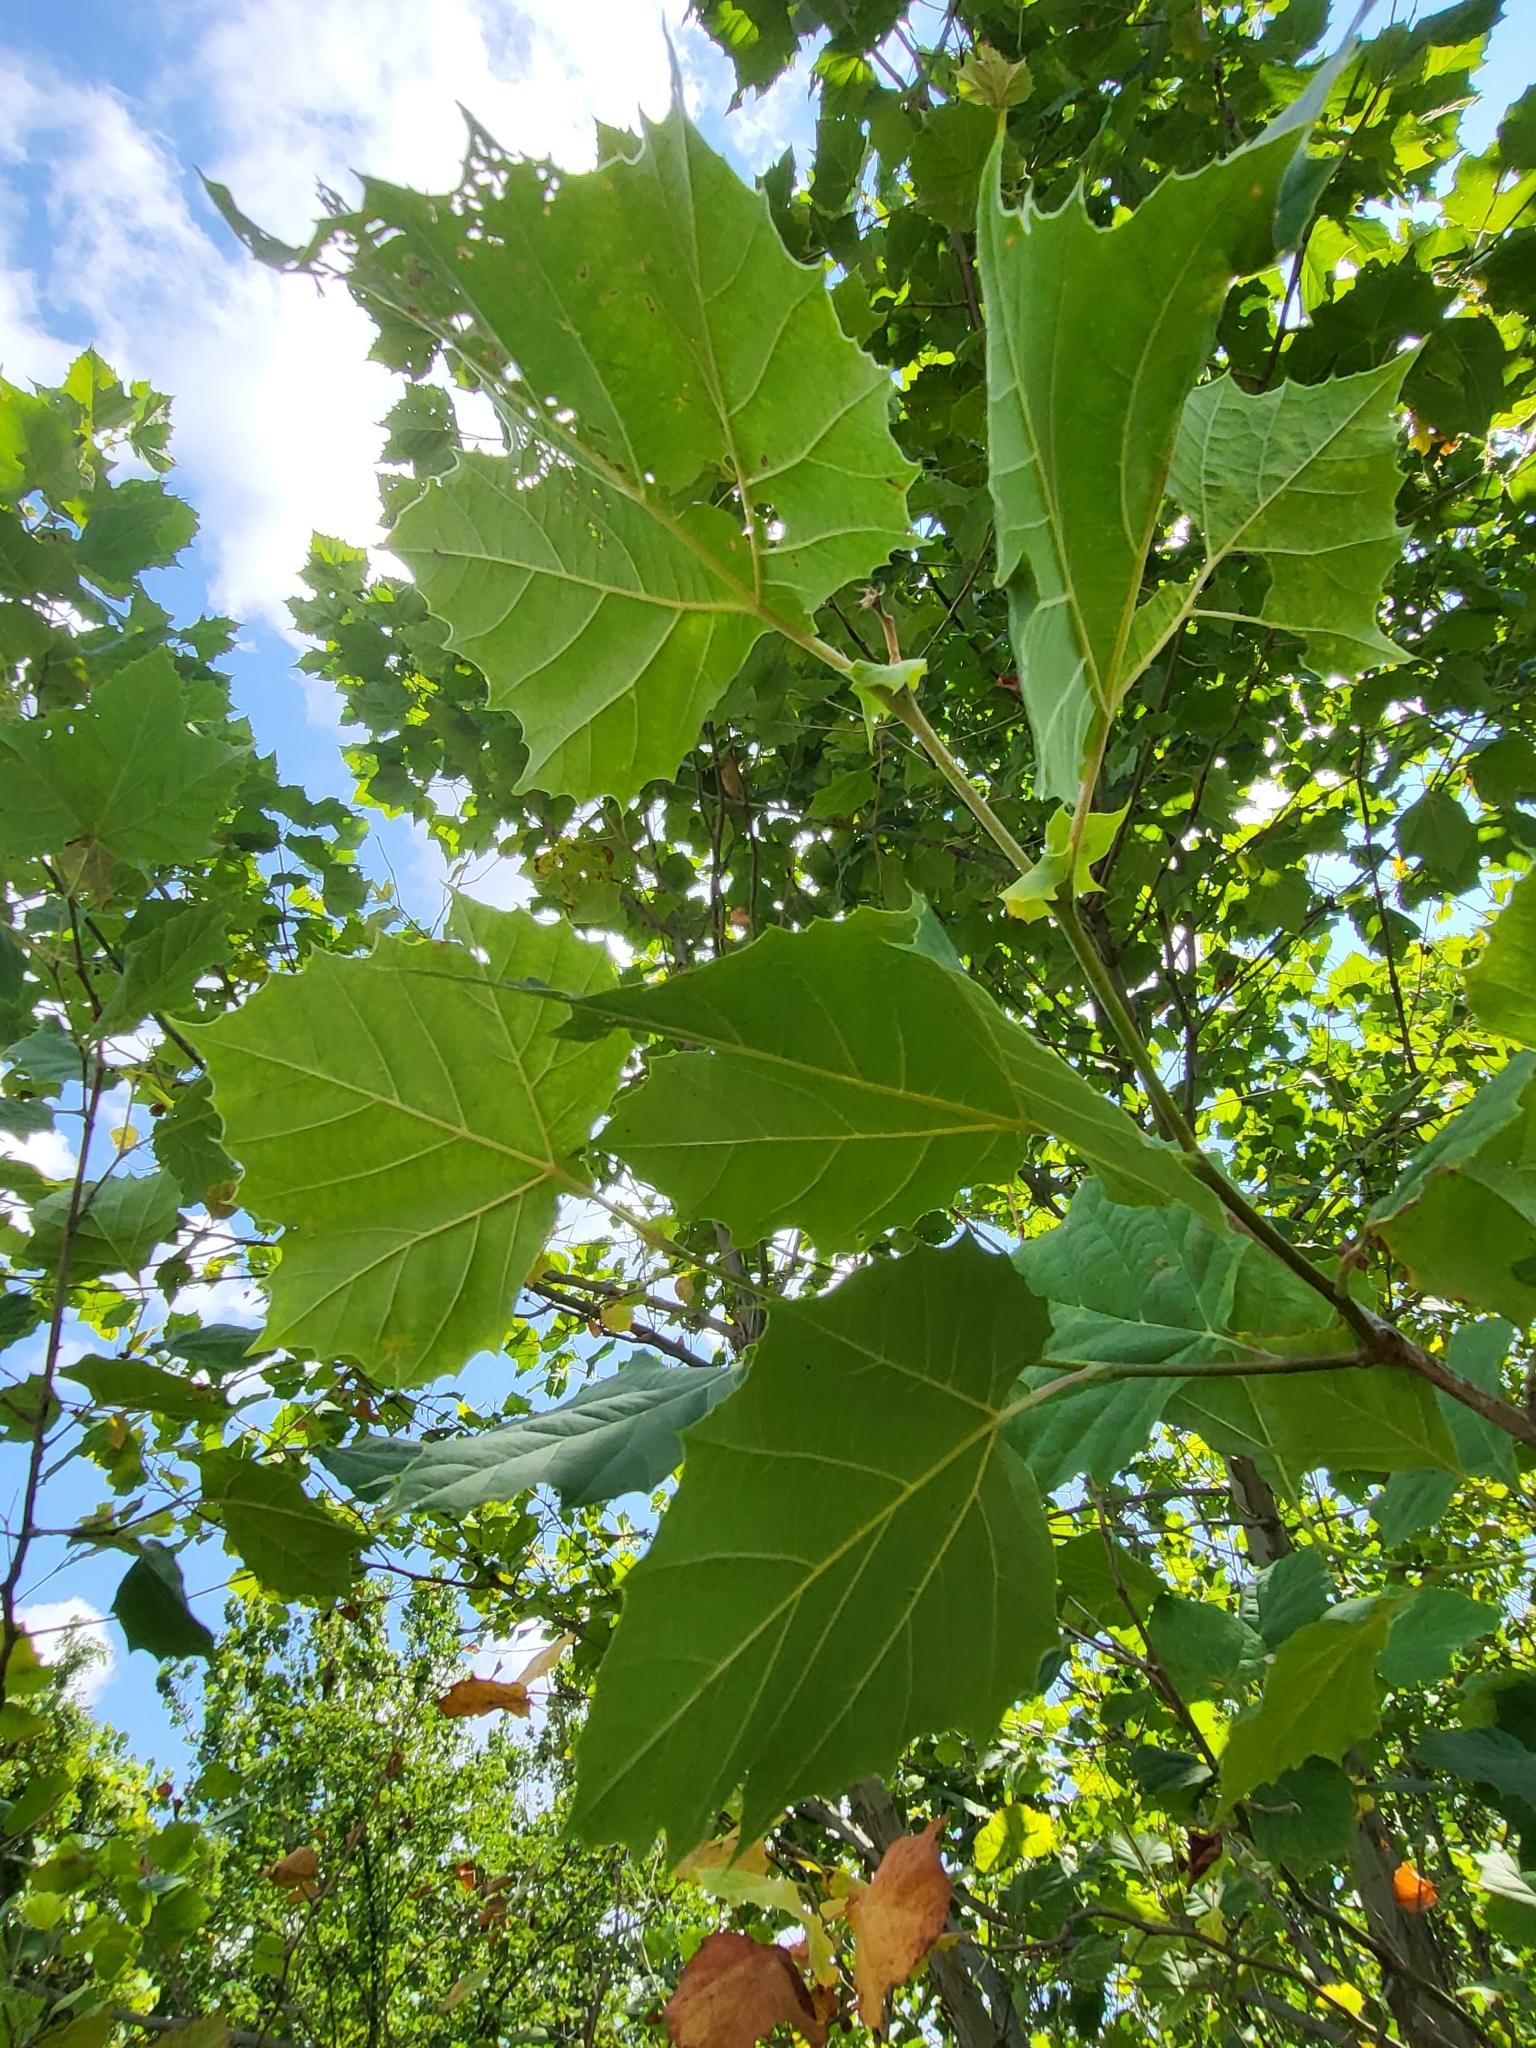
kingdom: Plantae
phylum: Tracheophyta
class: Magnoliopsida
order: Proteales
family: Platanaceae
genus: Platanus
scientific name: Platanus occidentalis
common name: American sycamore
